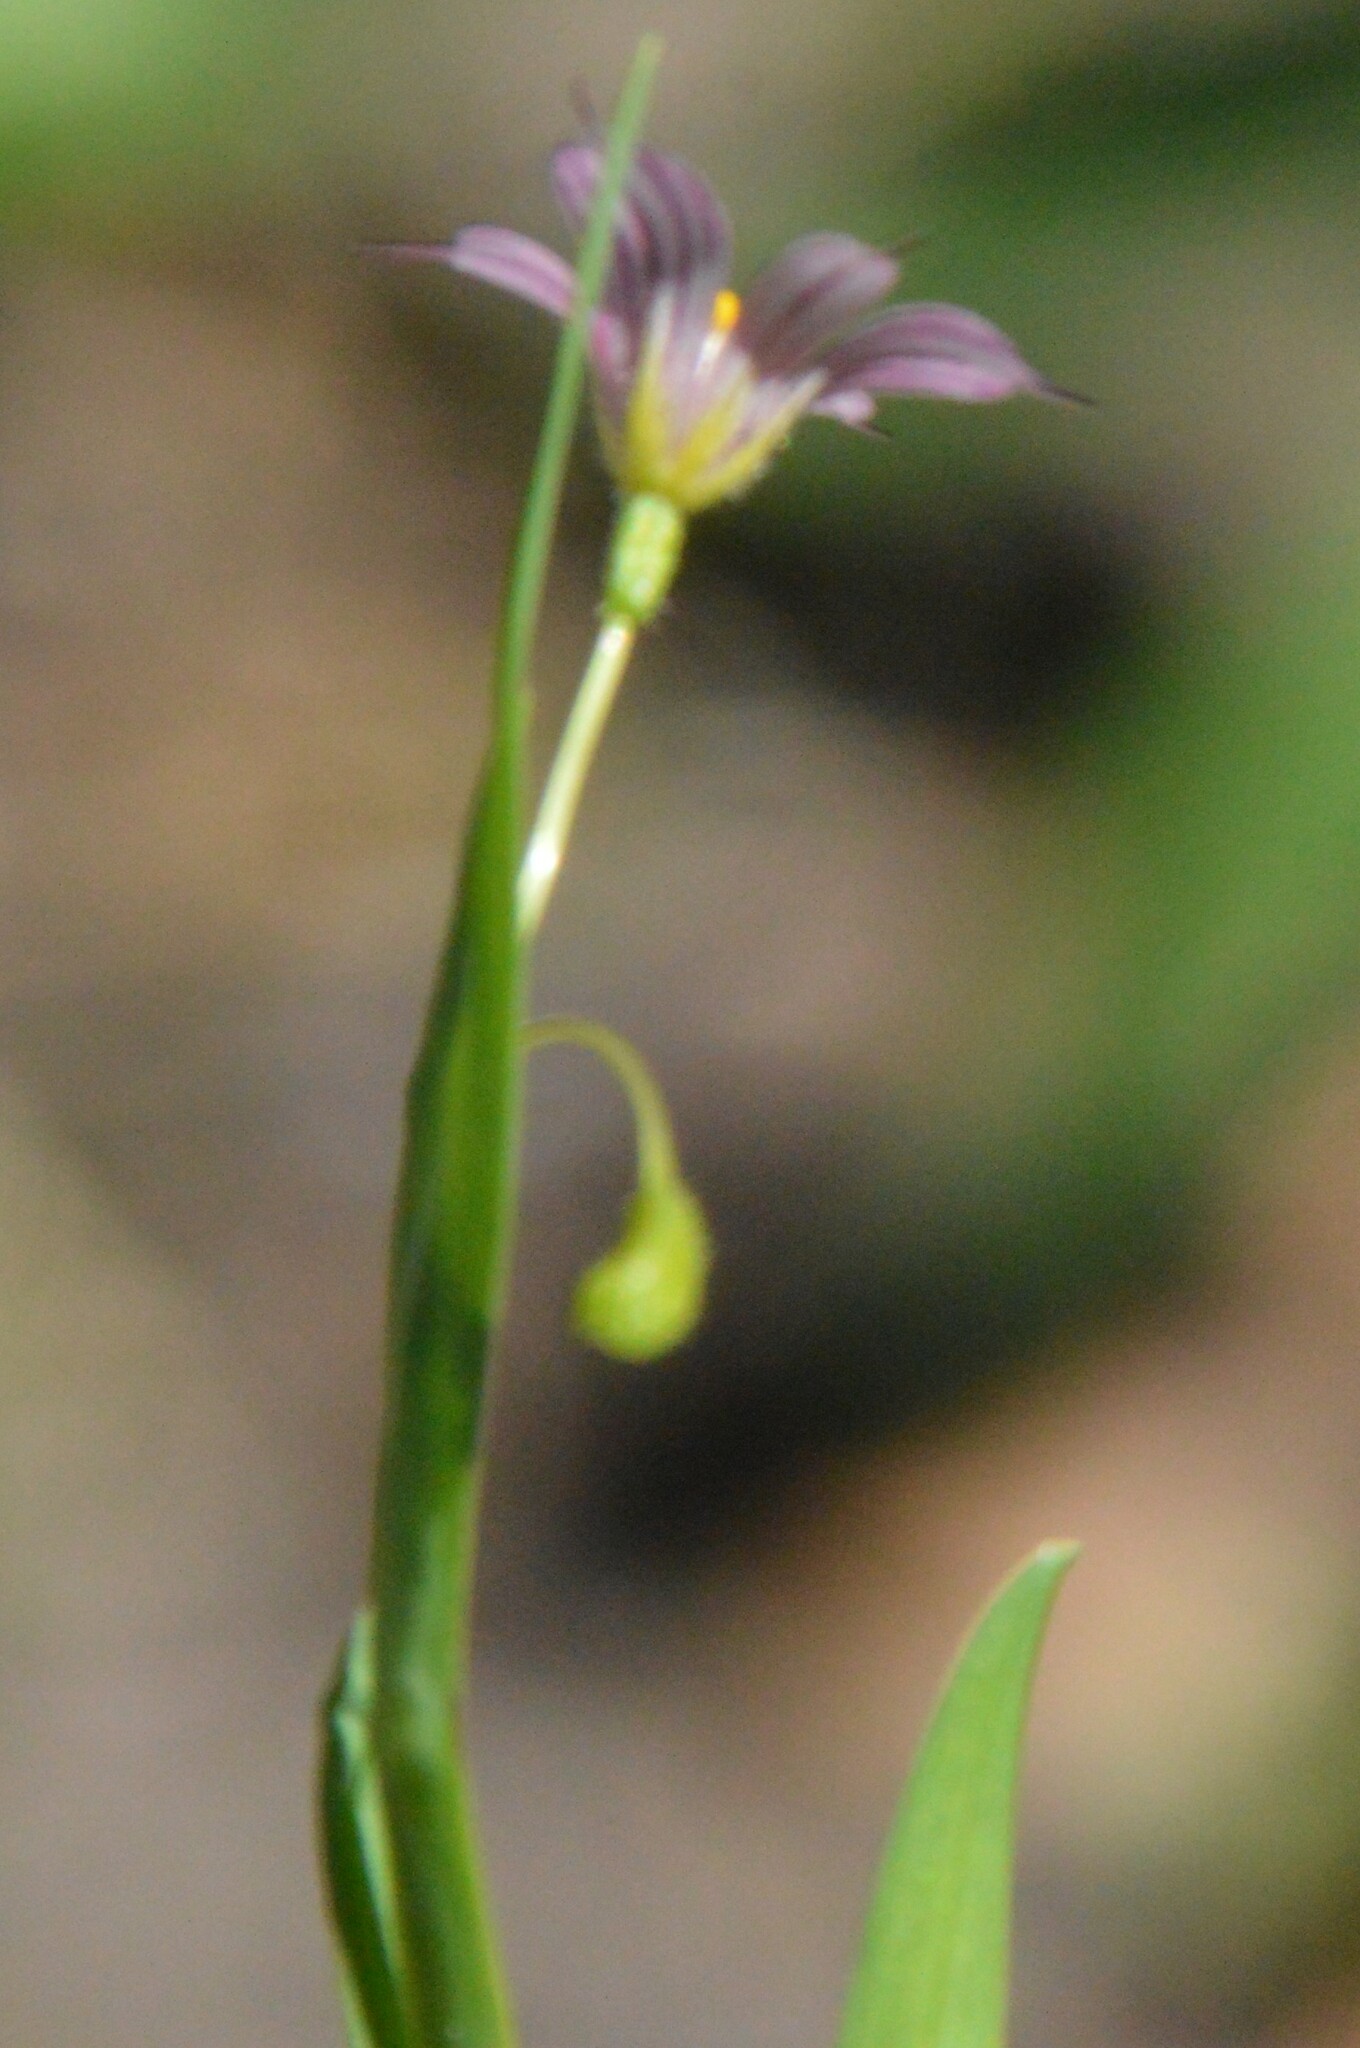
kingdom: Plantae
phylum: Tracheophyta
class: Liliopsida
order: Asparagales
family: Iridaceae
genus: Sisyrinchium
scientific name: Sisyrinchium minus
